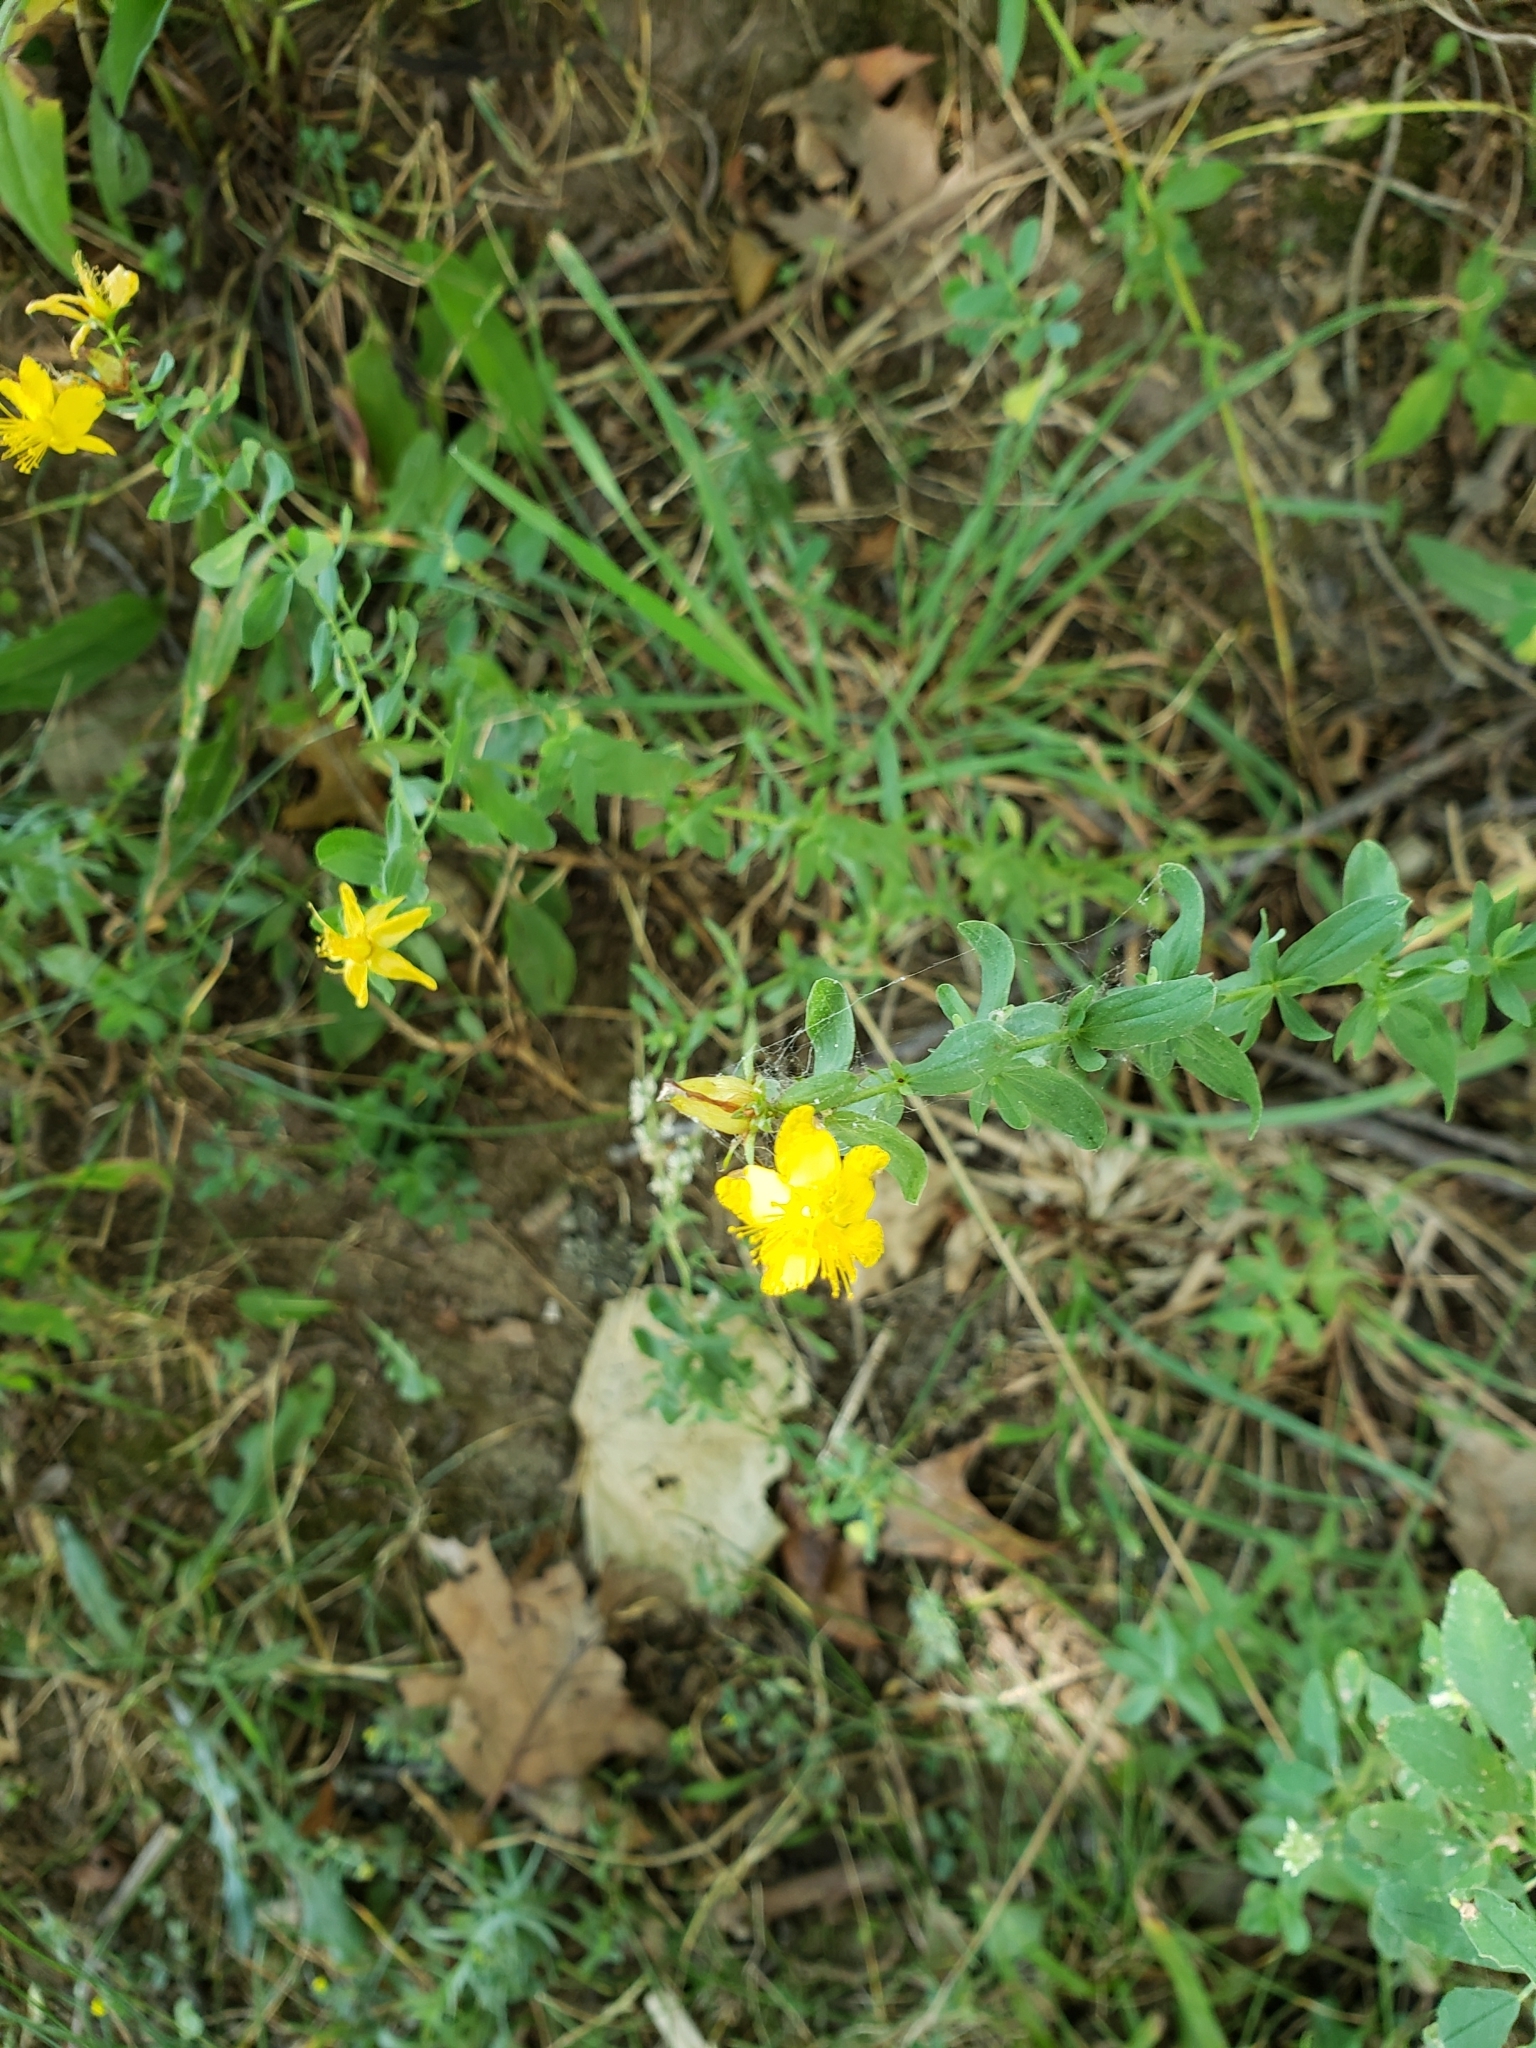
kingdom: Plantae
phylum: Tracheophyta
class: Magnoliopsida
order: Malpighiales
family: Hypericaceae
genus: Hypericum
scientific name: Hypericum perforatum
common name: Common st. johnswort
